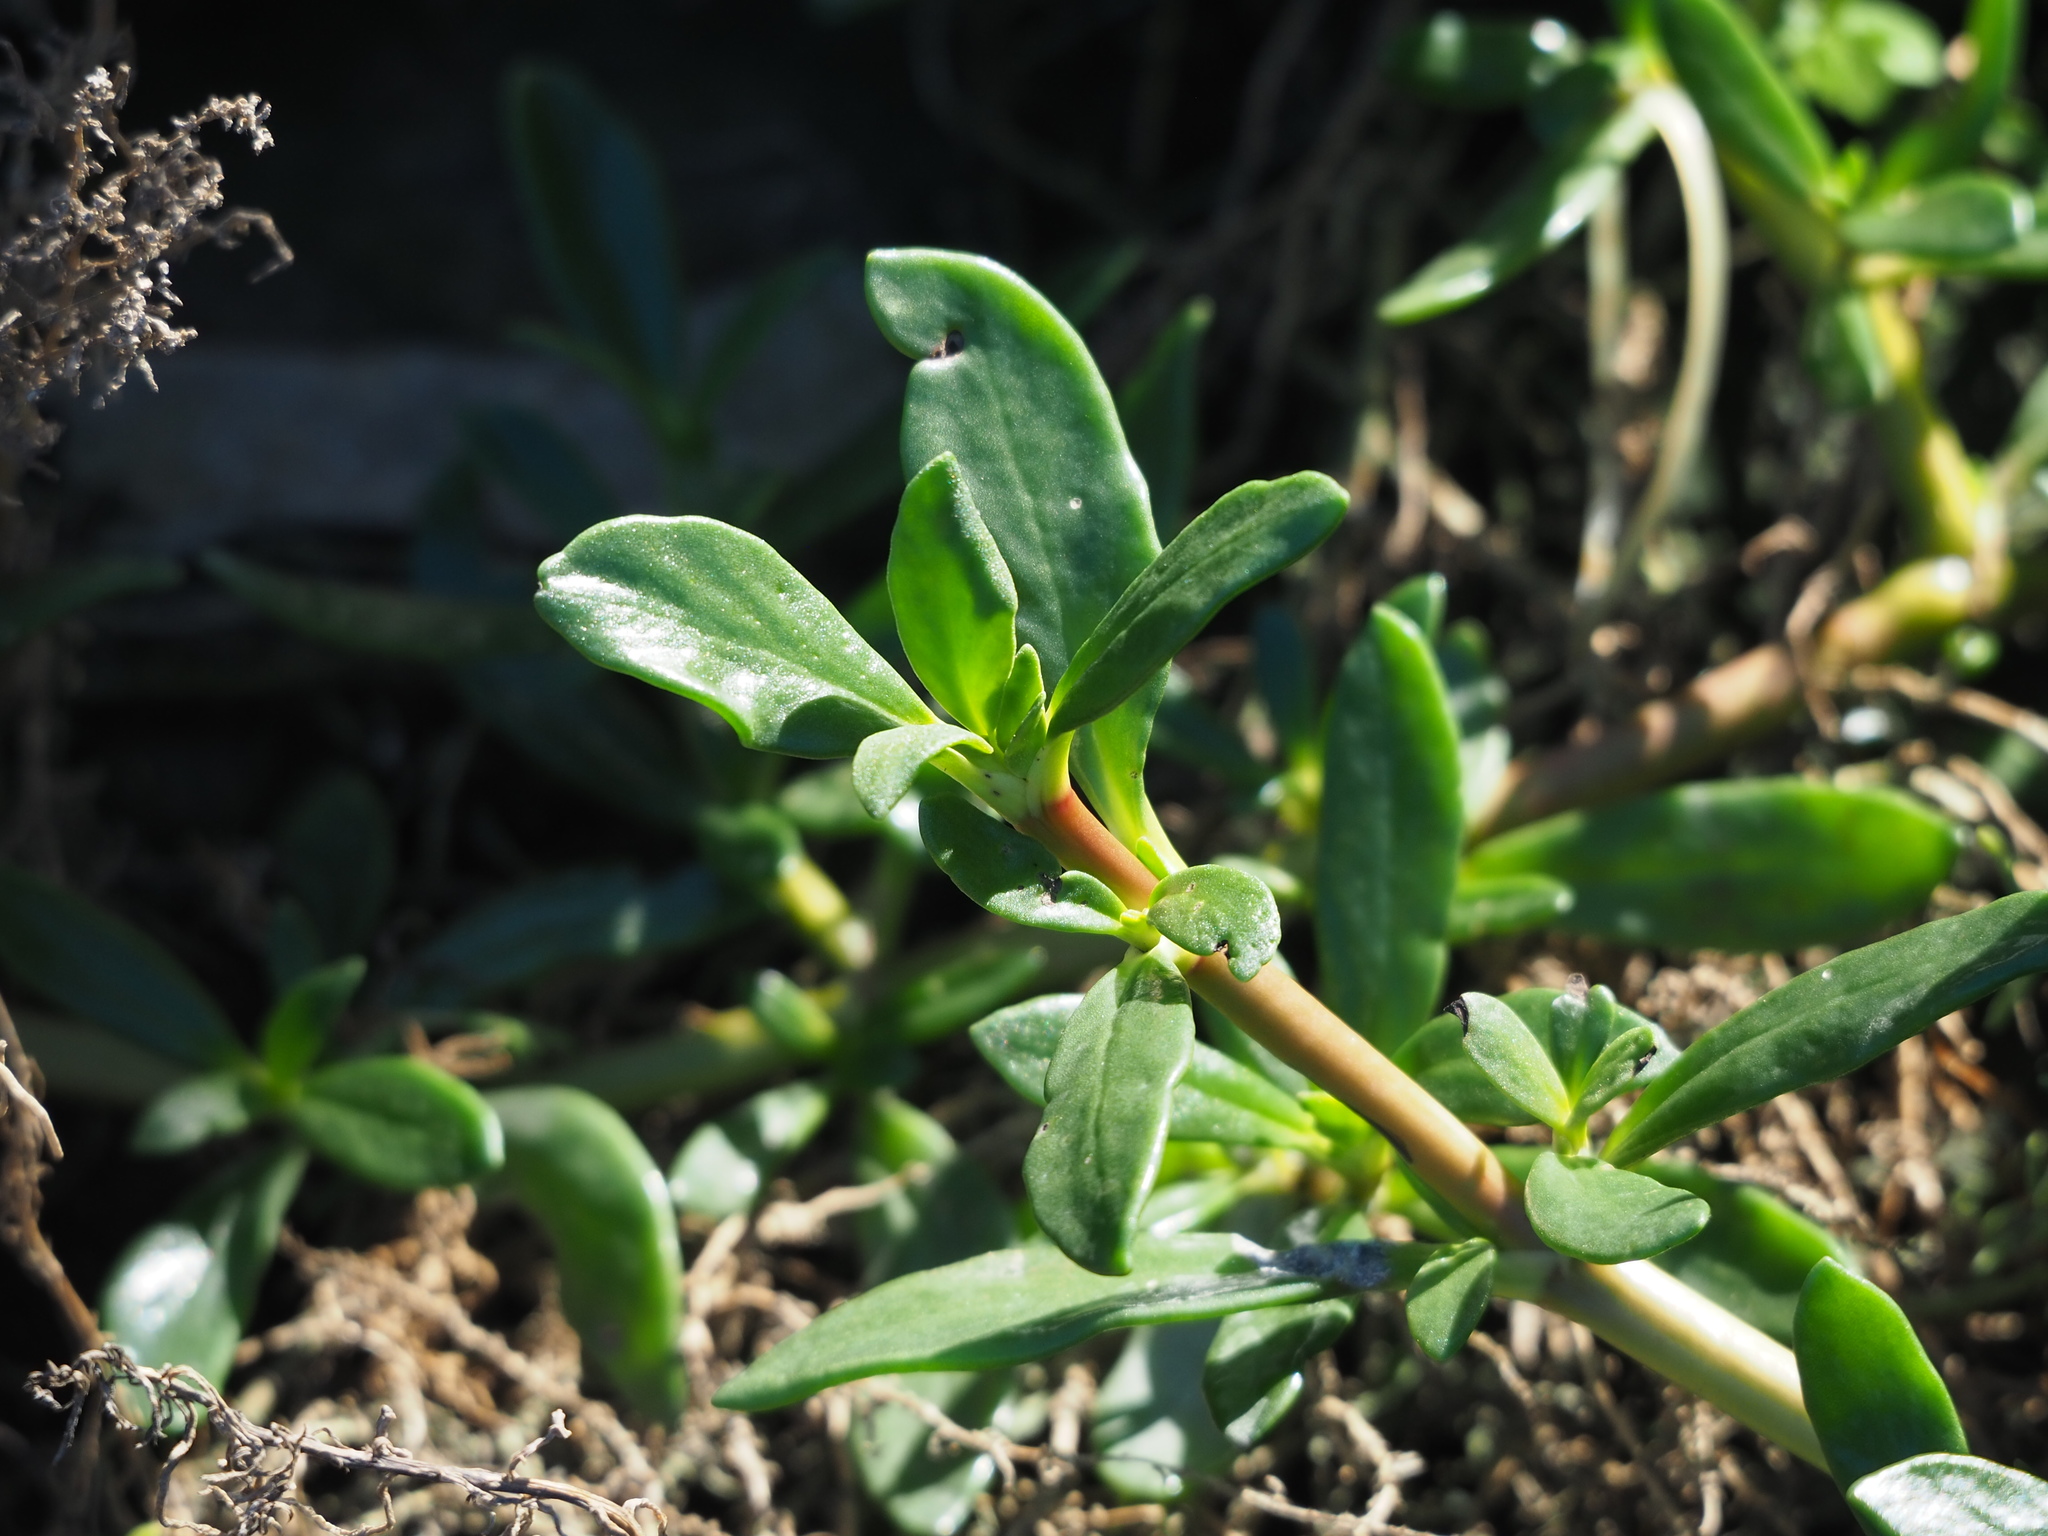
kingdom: Plantae
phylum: Tracheophyta
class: Magnoliopsida
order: Caryophyllales
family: Aizoaceae
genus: Sesuvium
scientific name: Sesuvium portulacastrum
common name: Sea-purslane
